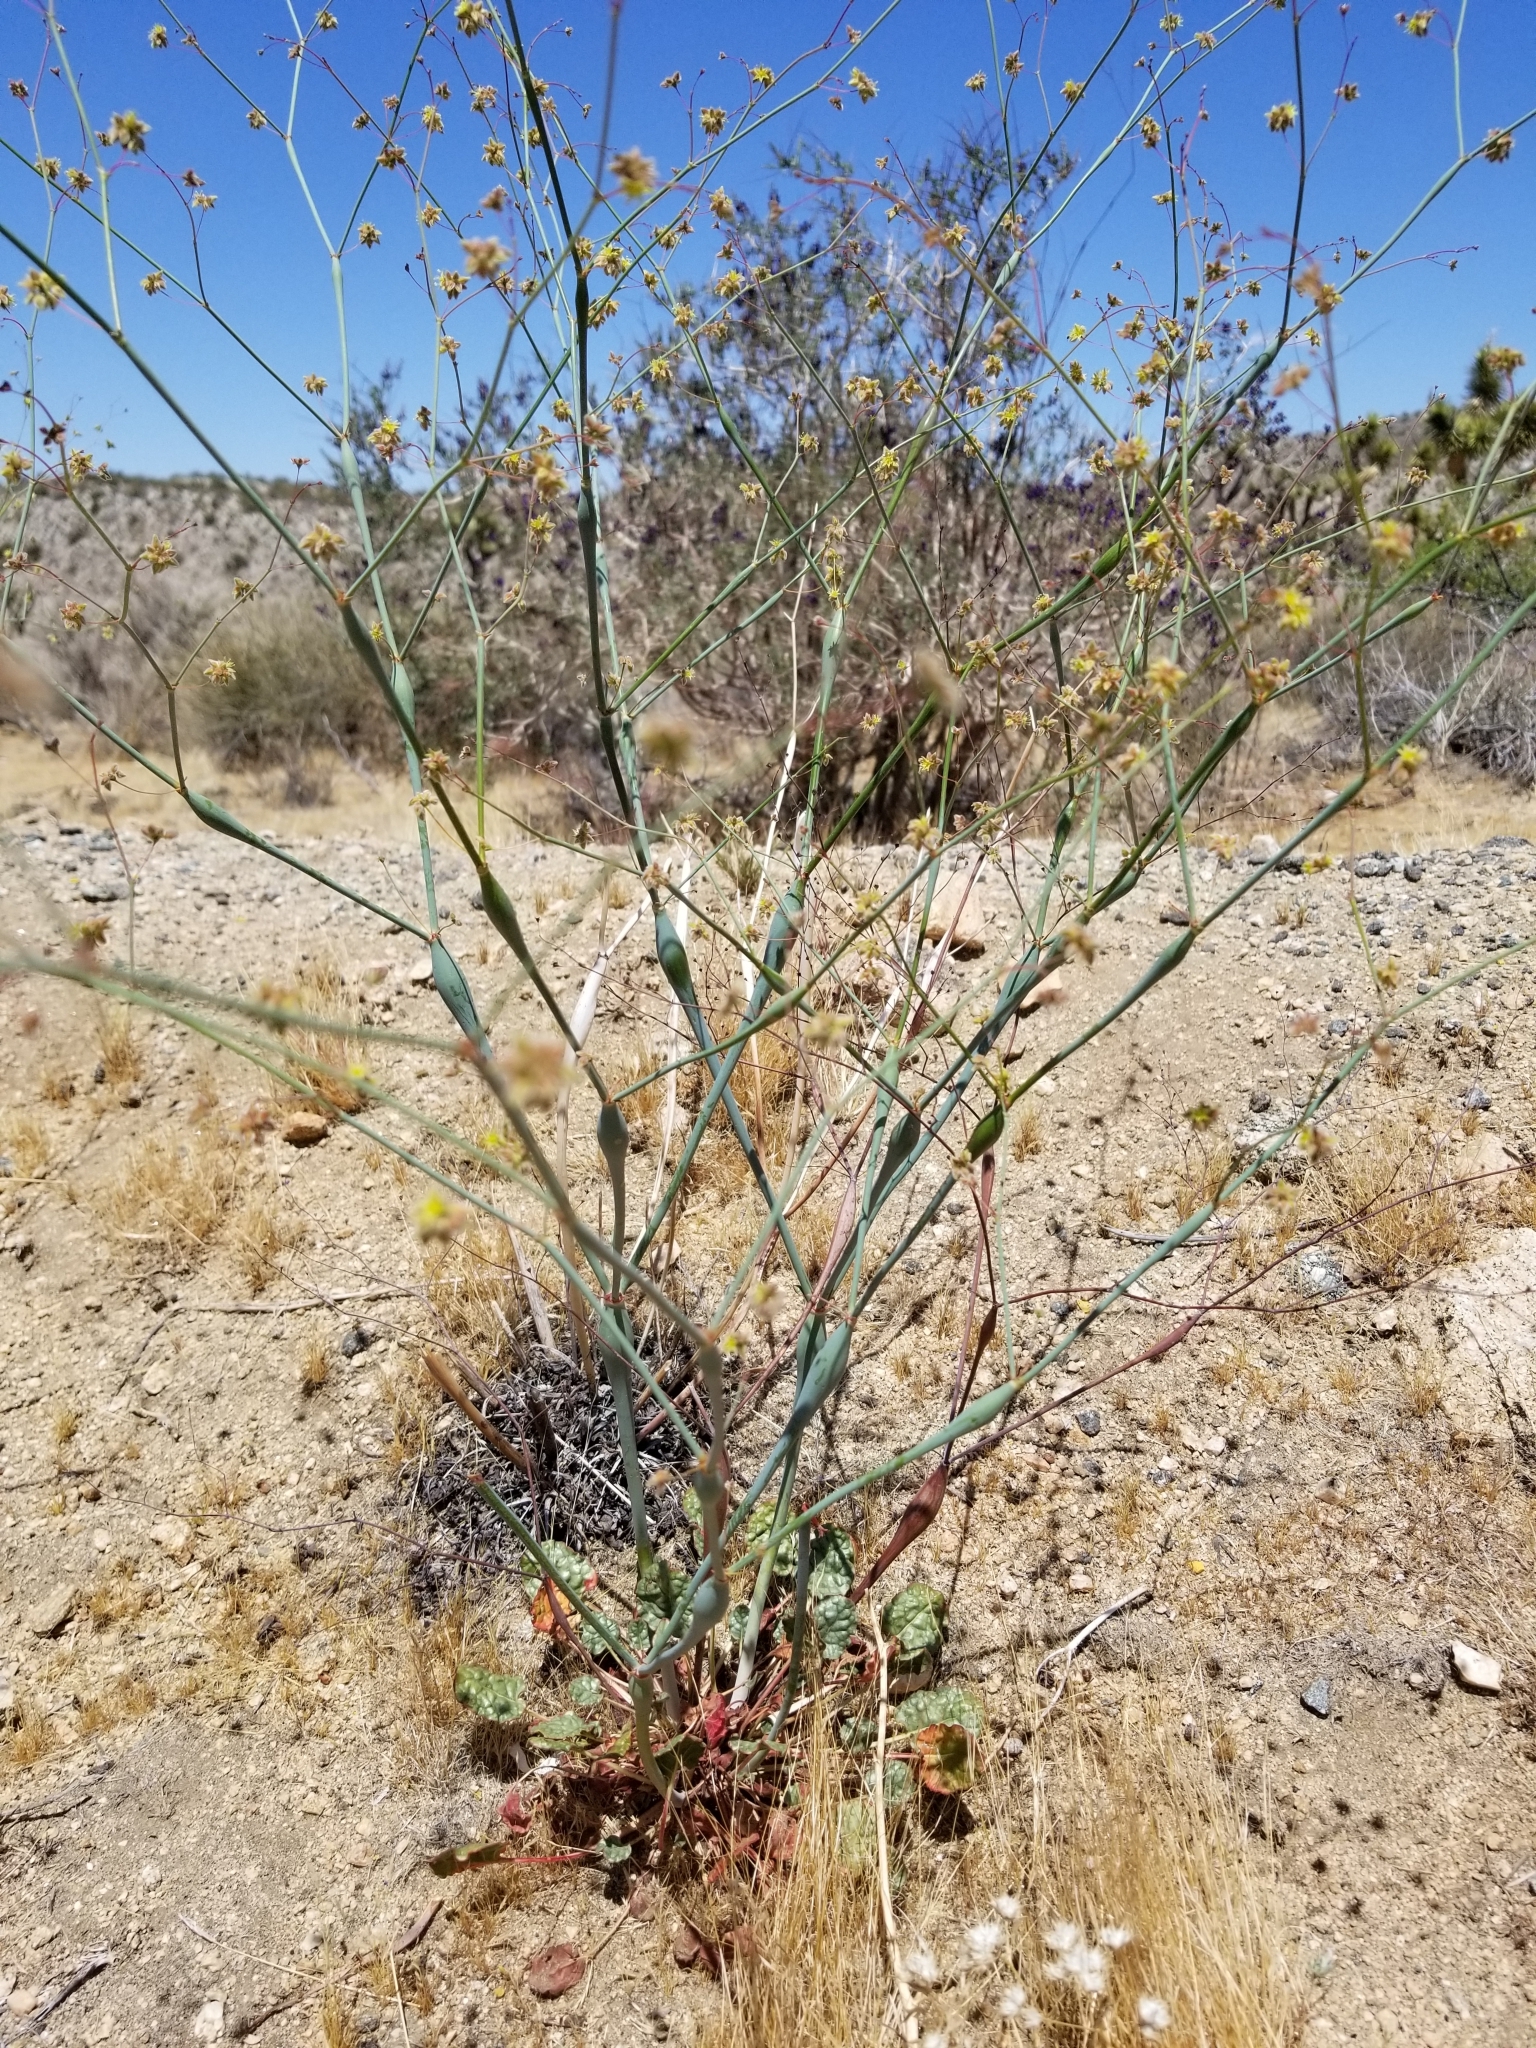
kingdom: Plantae
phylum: Tracheophyta
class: Magnoliopsida
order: Caryophyllales
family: Polygonaceae
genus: Eriogonum
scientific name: Eriogonum inflatum
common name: Desert trumpet
